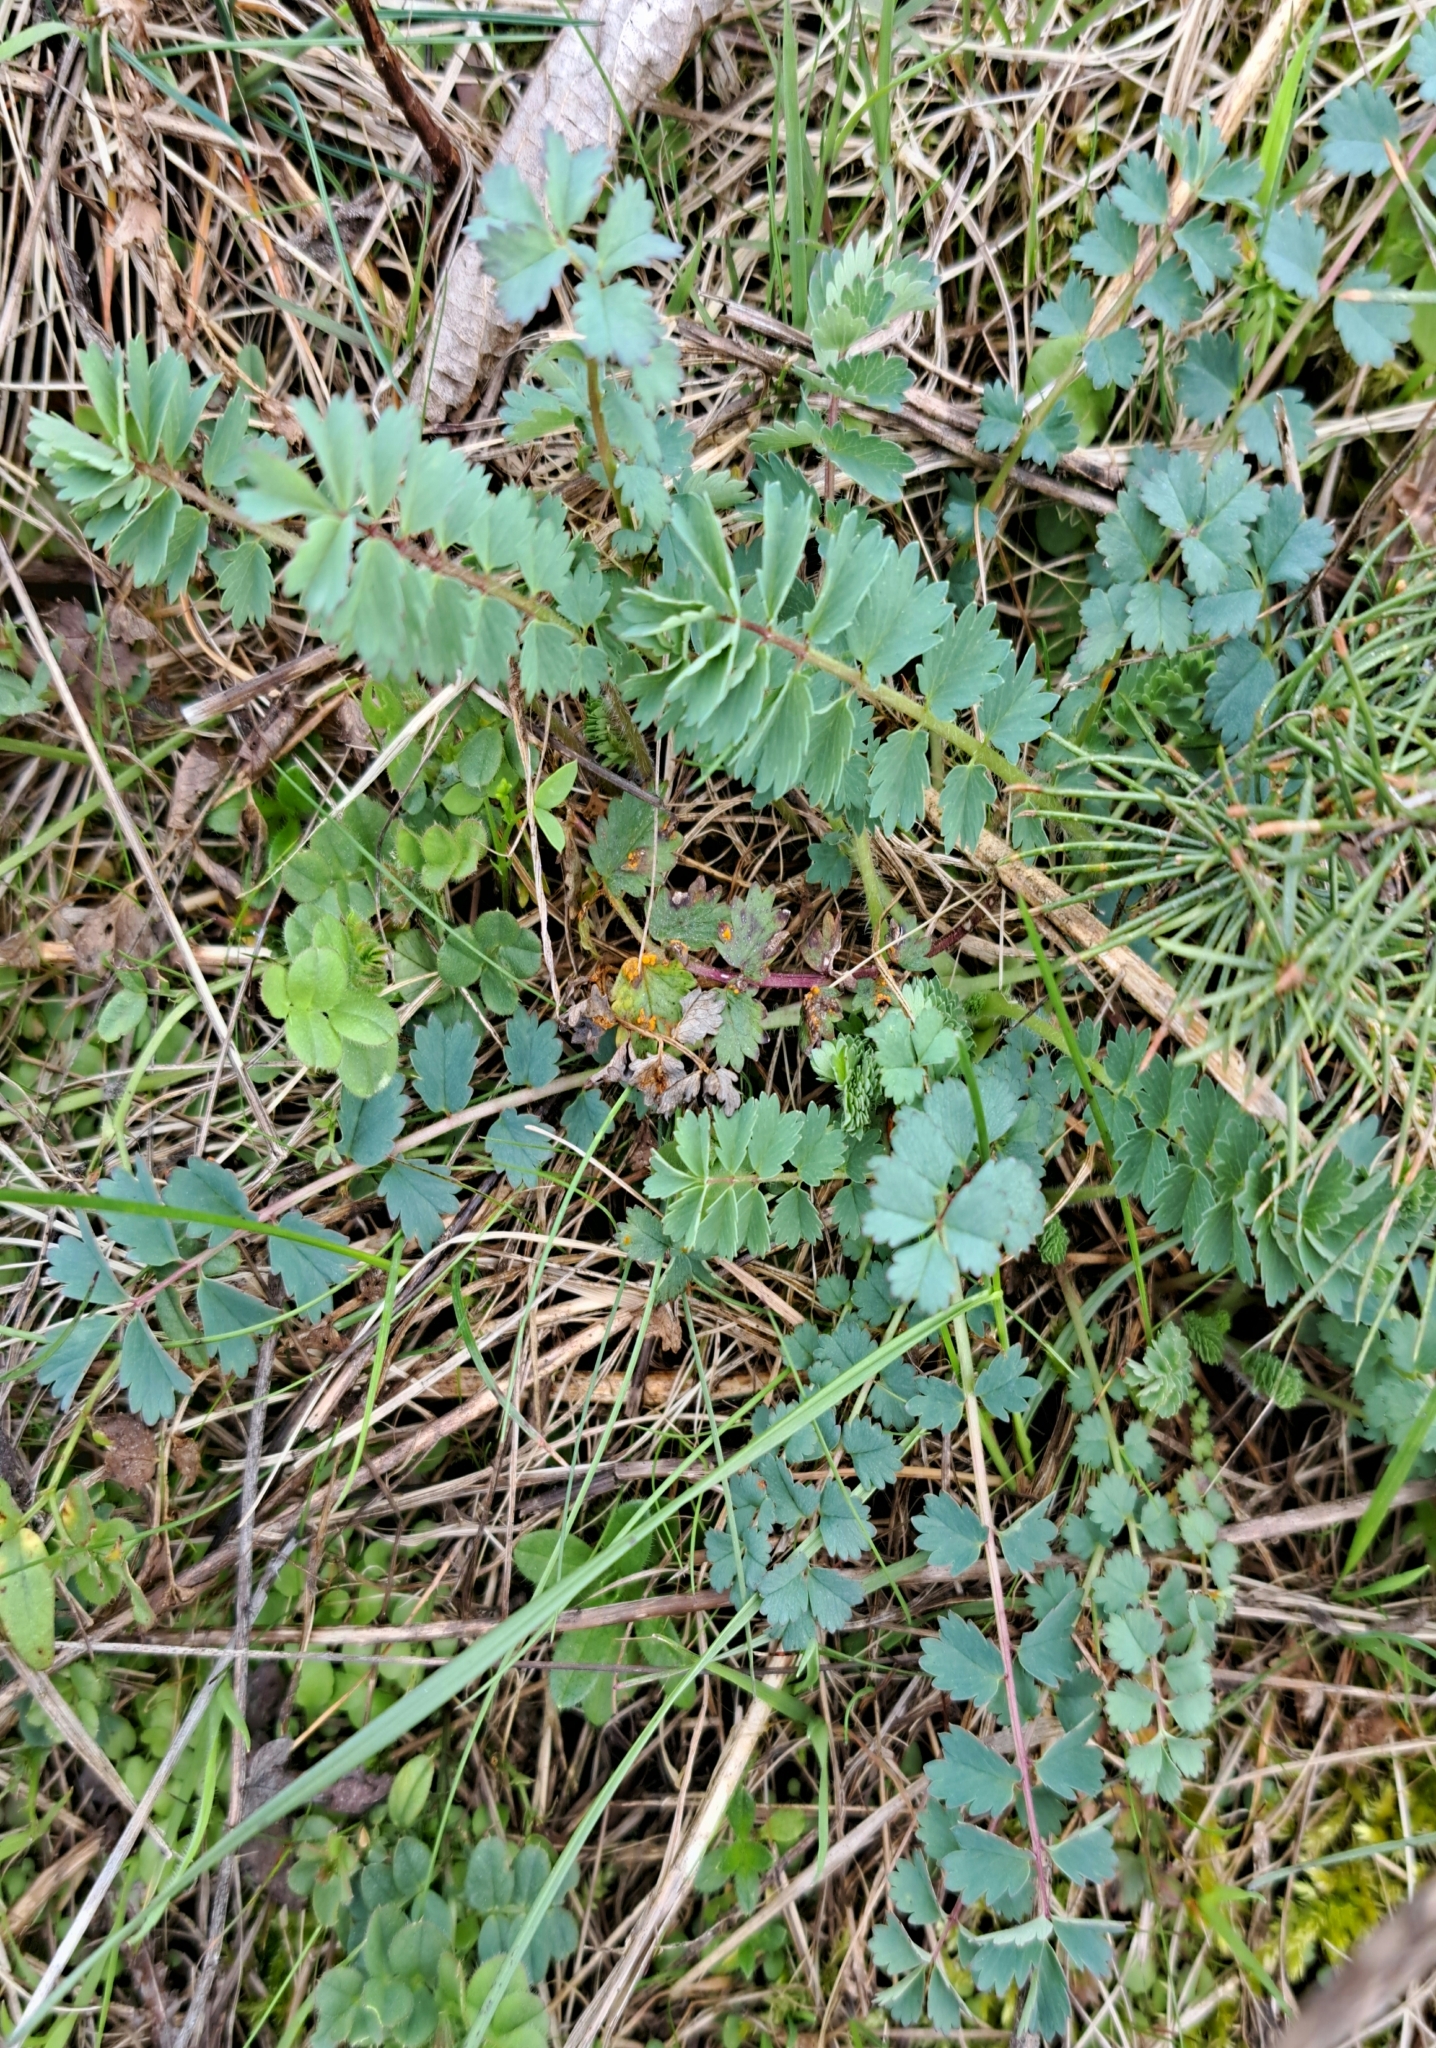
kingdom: Plantae
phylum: Tracheophyta
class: Magnoliopsida
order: Rosales
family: Rosaceae
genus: Poterium
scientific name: Poterium sanguisorba
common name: Salad burnet
